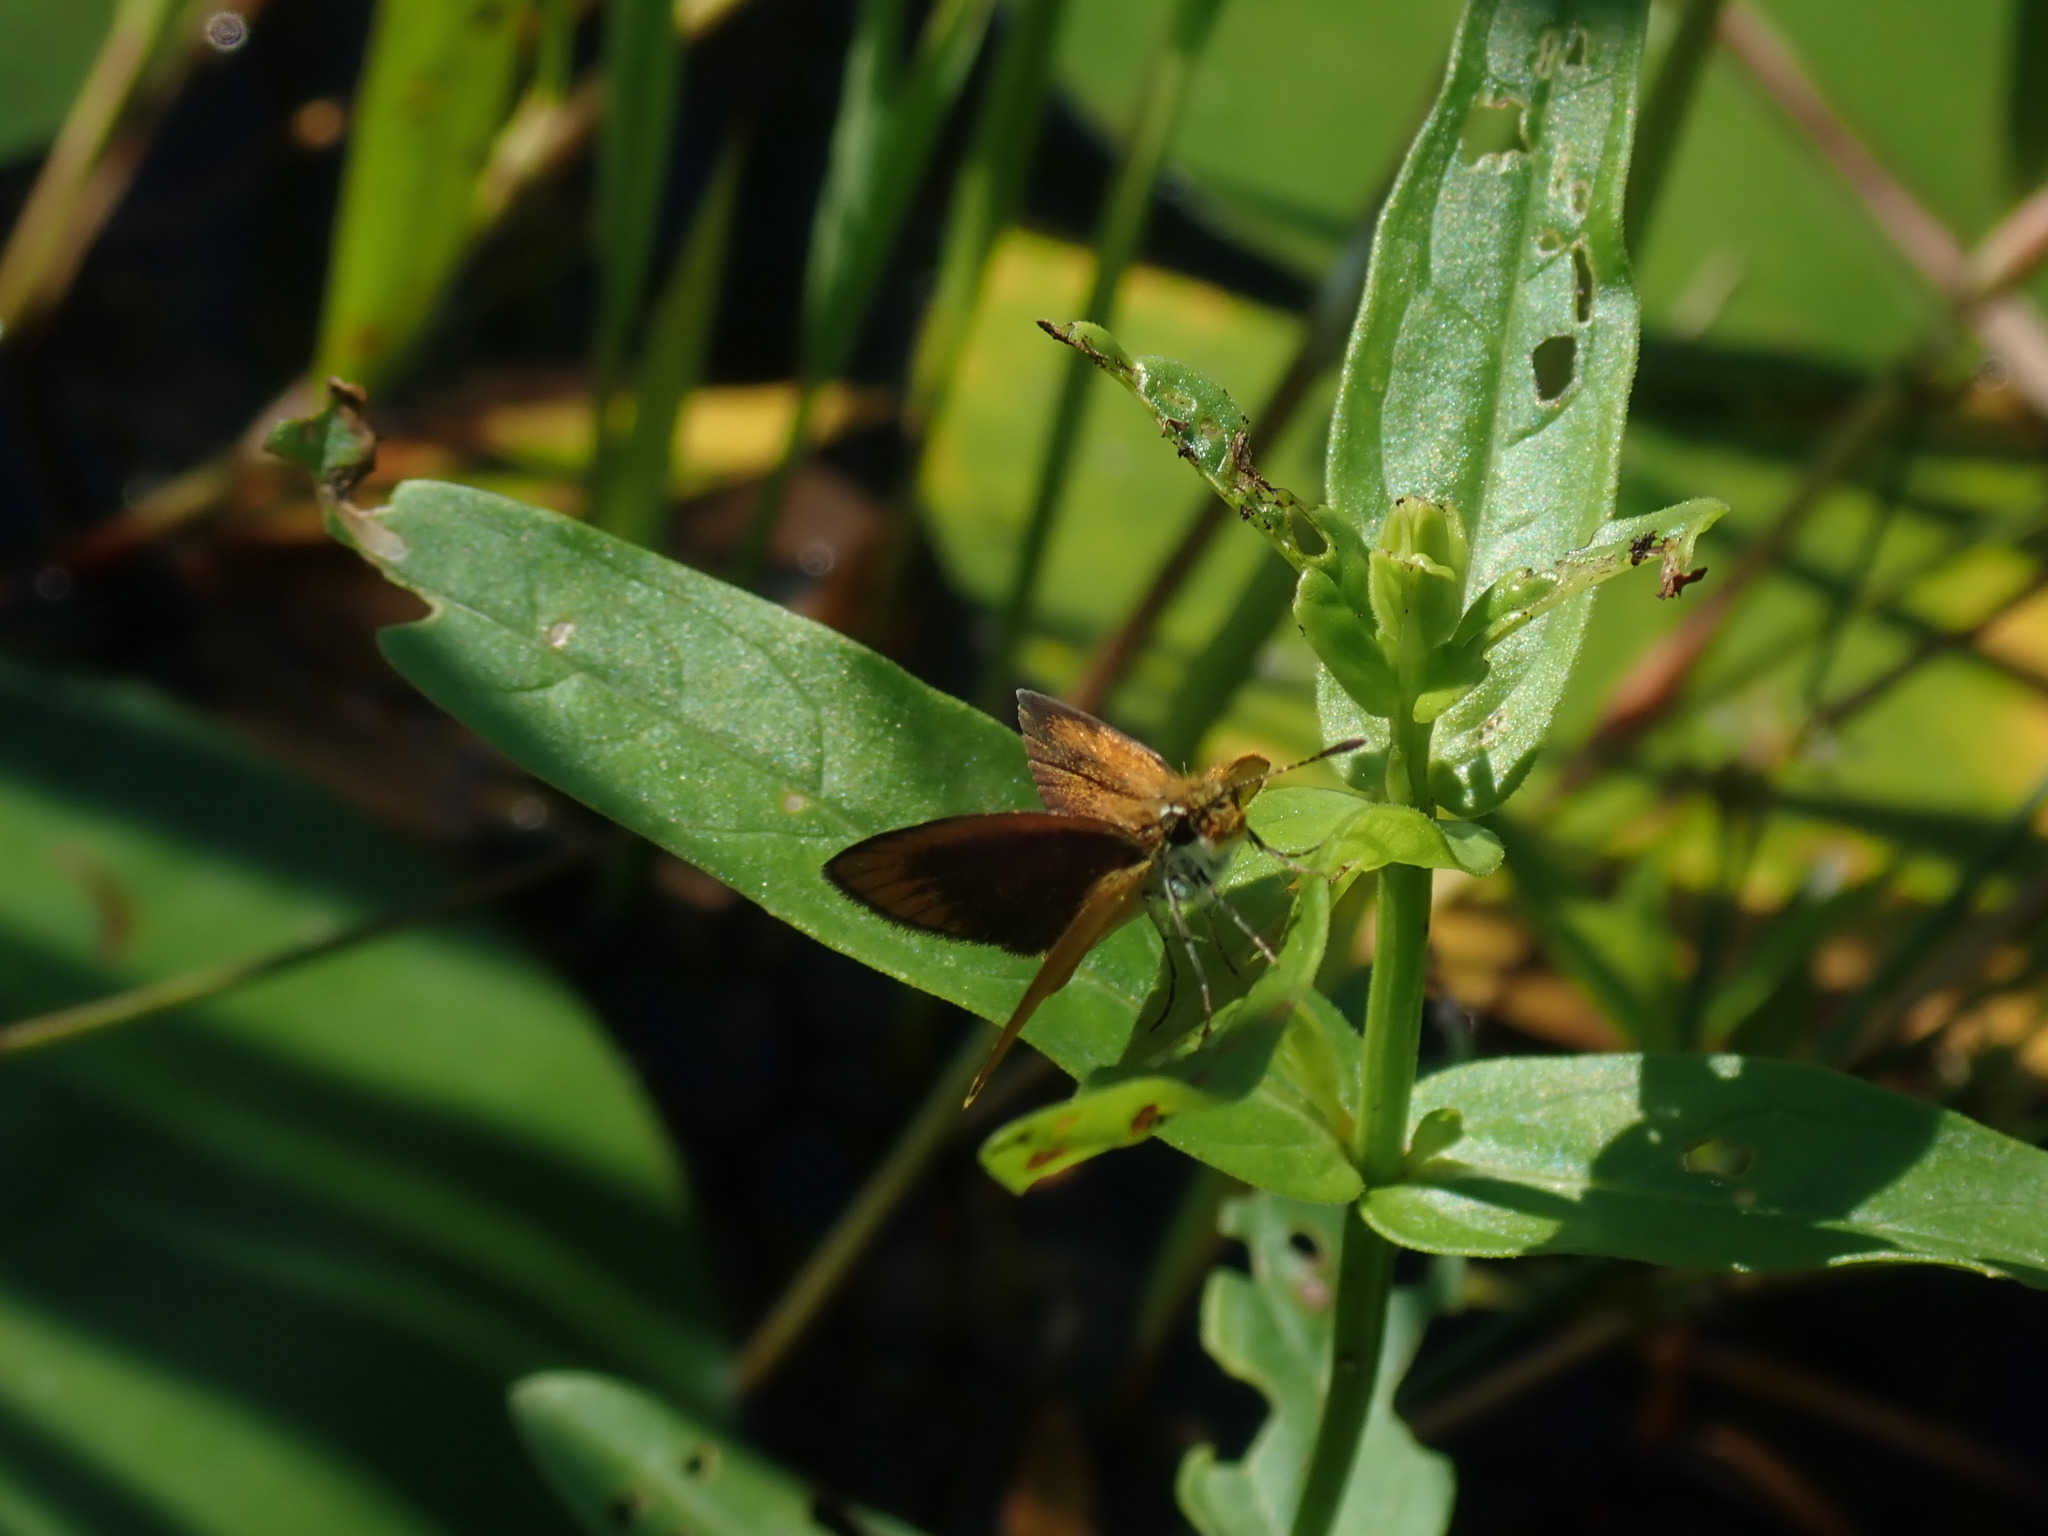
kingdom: Animalia
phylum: Arthropoda
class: Insecta
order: Lepidoptera
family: Hesperiidae
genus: Ancyloxypha
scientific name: Ancyloxypha numitor
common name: Least skipper
